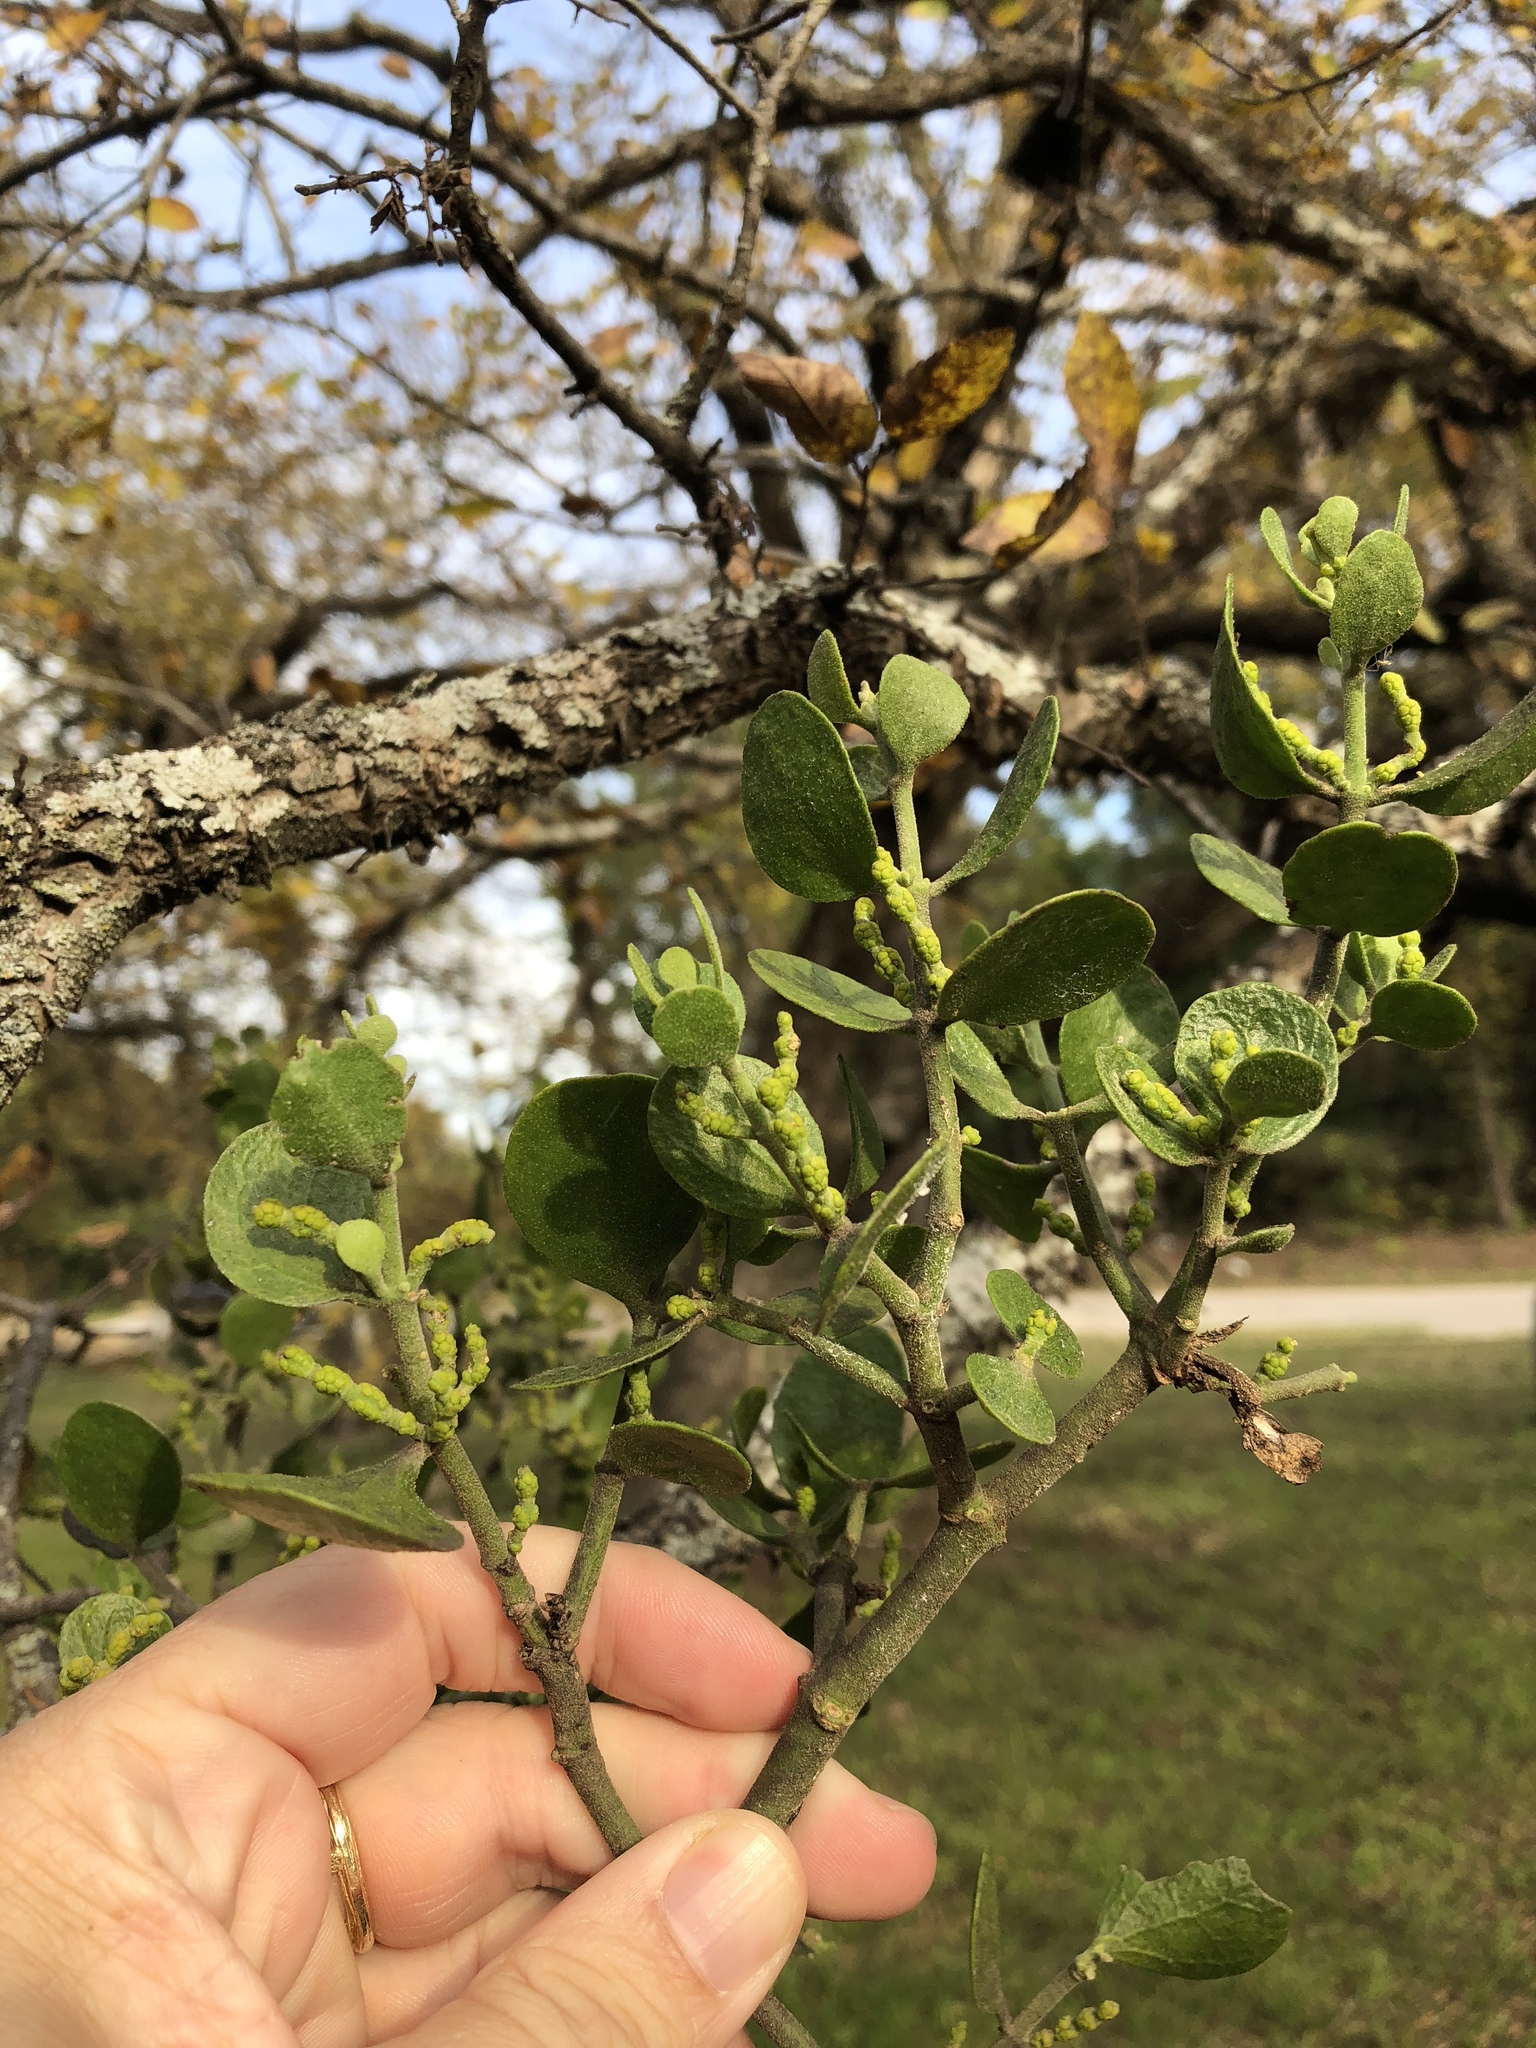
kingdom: Plantae
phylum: Tracheophyta
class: Magnoliopsida
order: Santalales
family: Viscaceae
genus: Phoradendron
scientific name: Phoradendron leucarpum
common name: Pacific mistletoe
